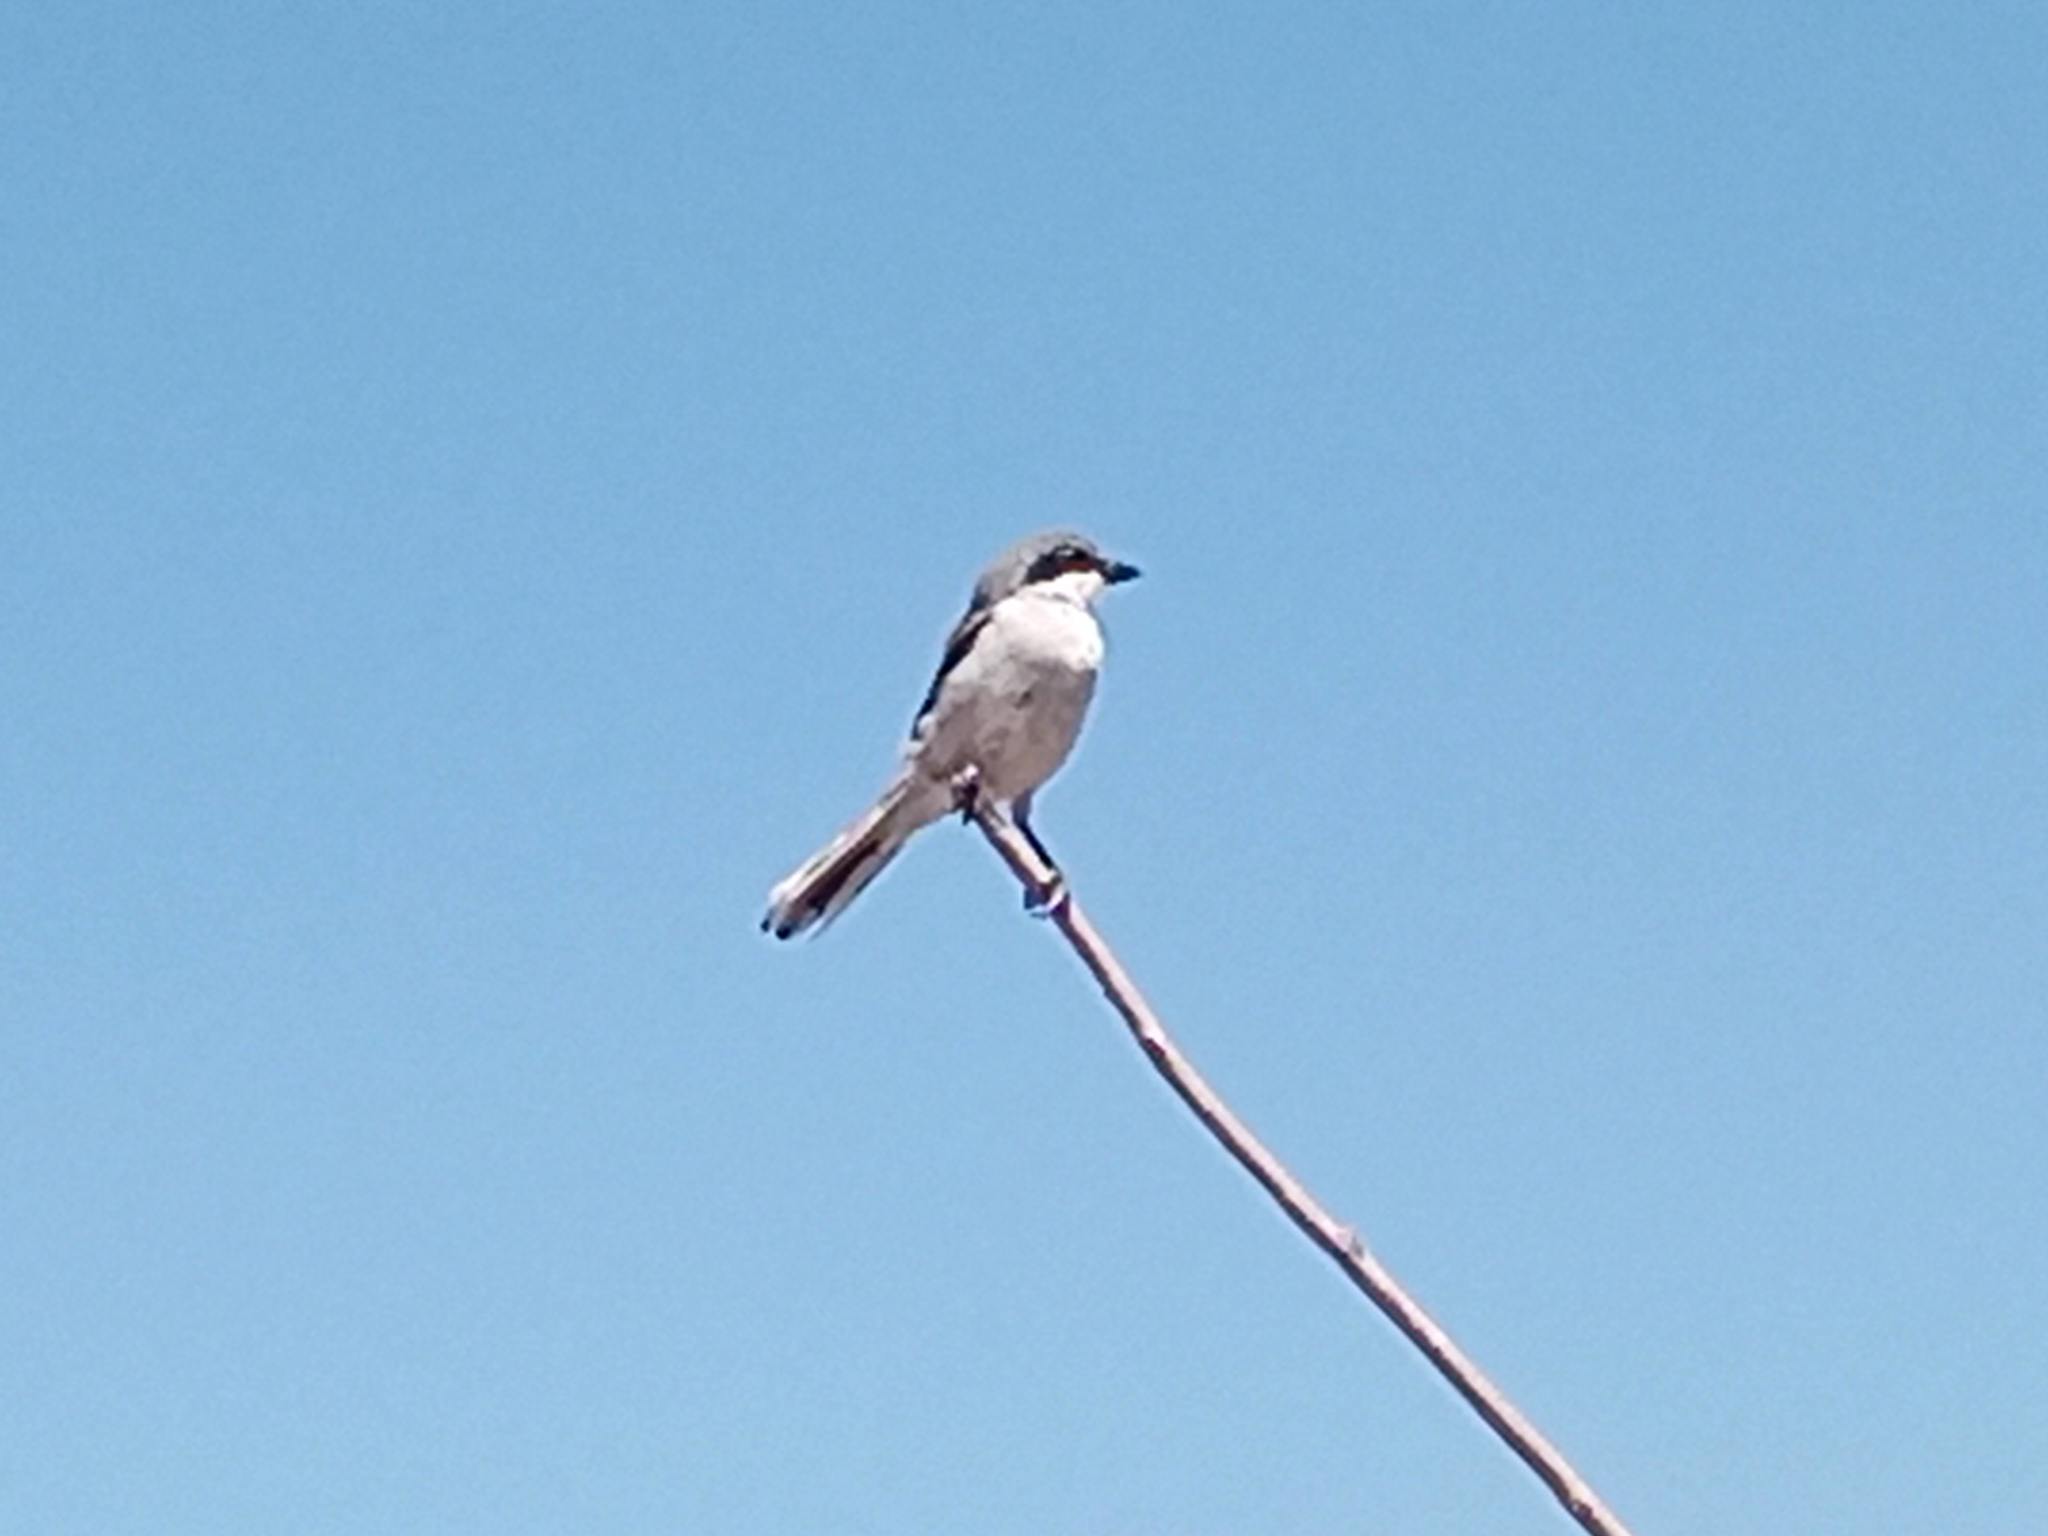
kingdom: Animalia
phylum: Chordata
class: Aves
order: Passeriformes
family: Laniidae
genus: Lanius
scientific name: Lanius excubitor
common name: Great grey shrike
